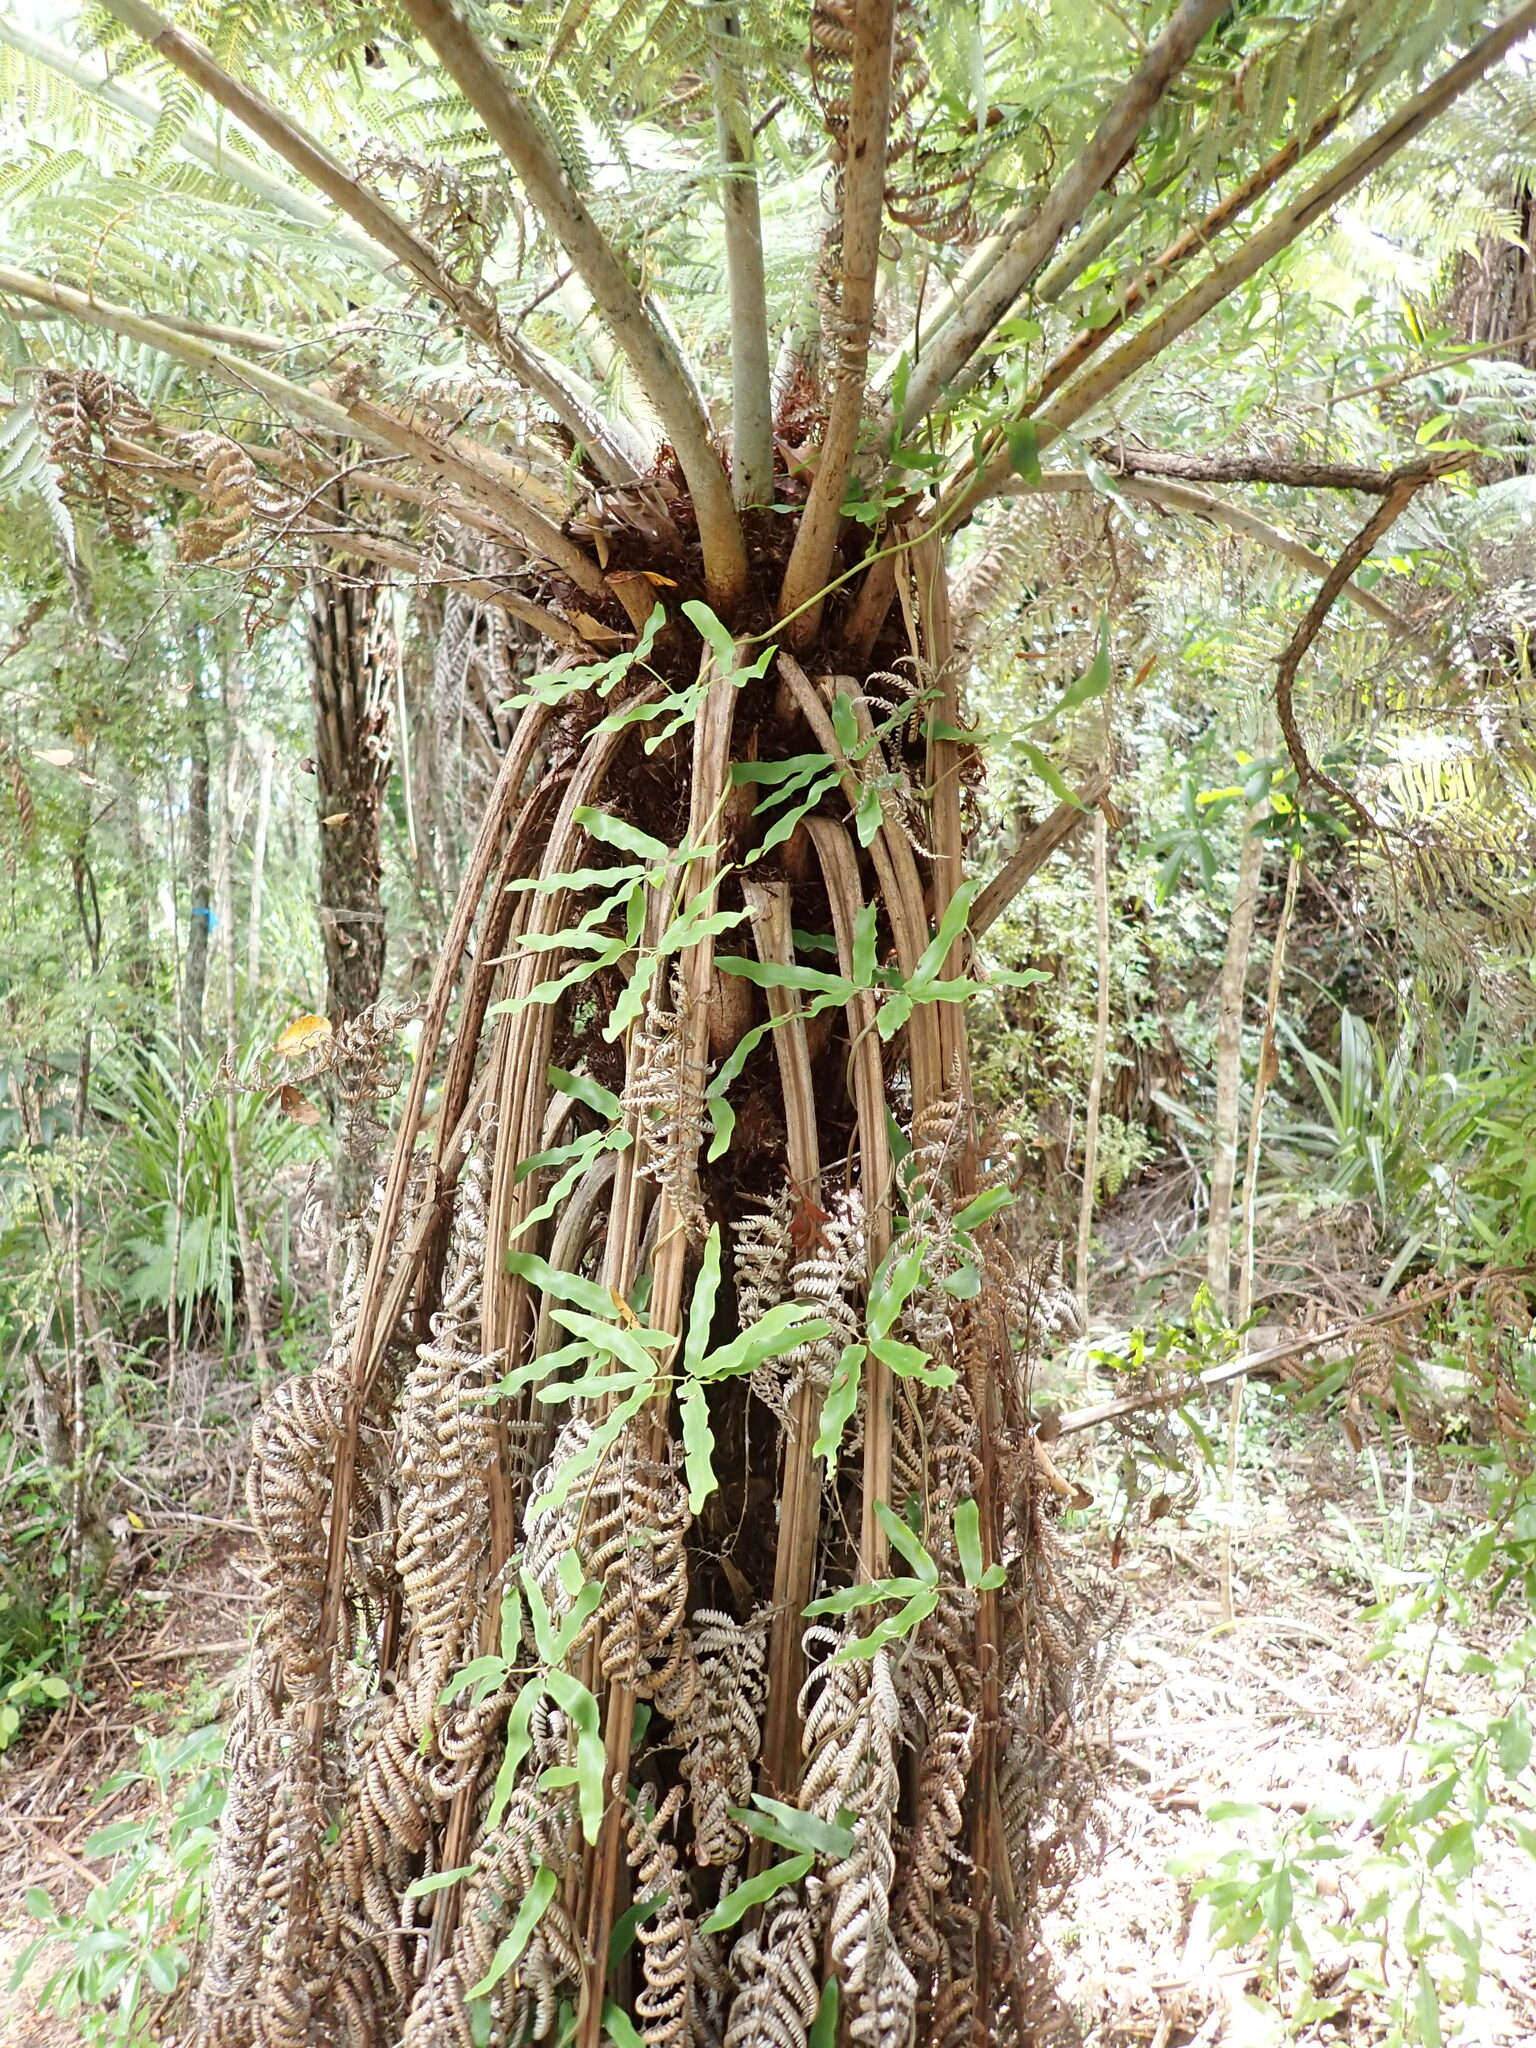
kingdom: Plantae
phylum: Tracheophyta
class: Polypodiopsida
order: Schizaeales
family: Lygodiaceae
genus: Lygodium
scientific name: Lygodium articulatum
